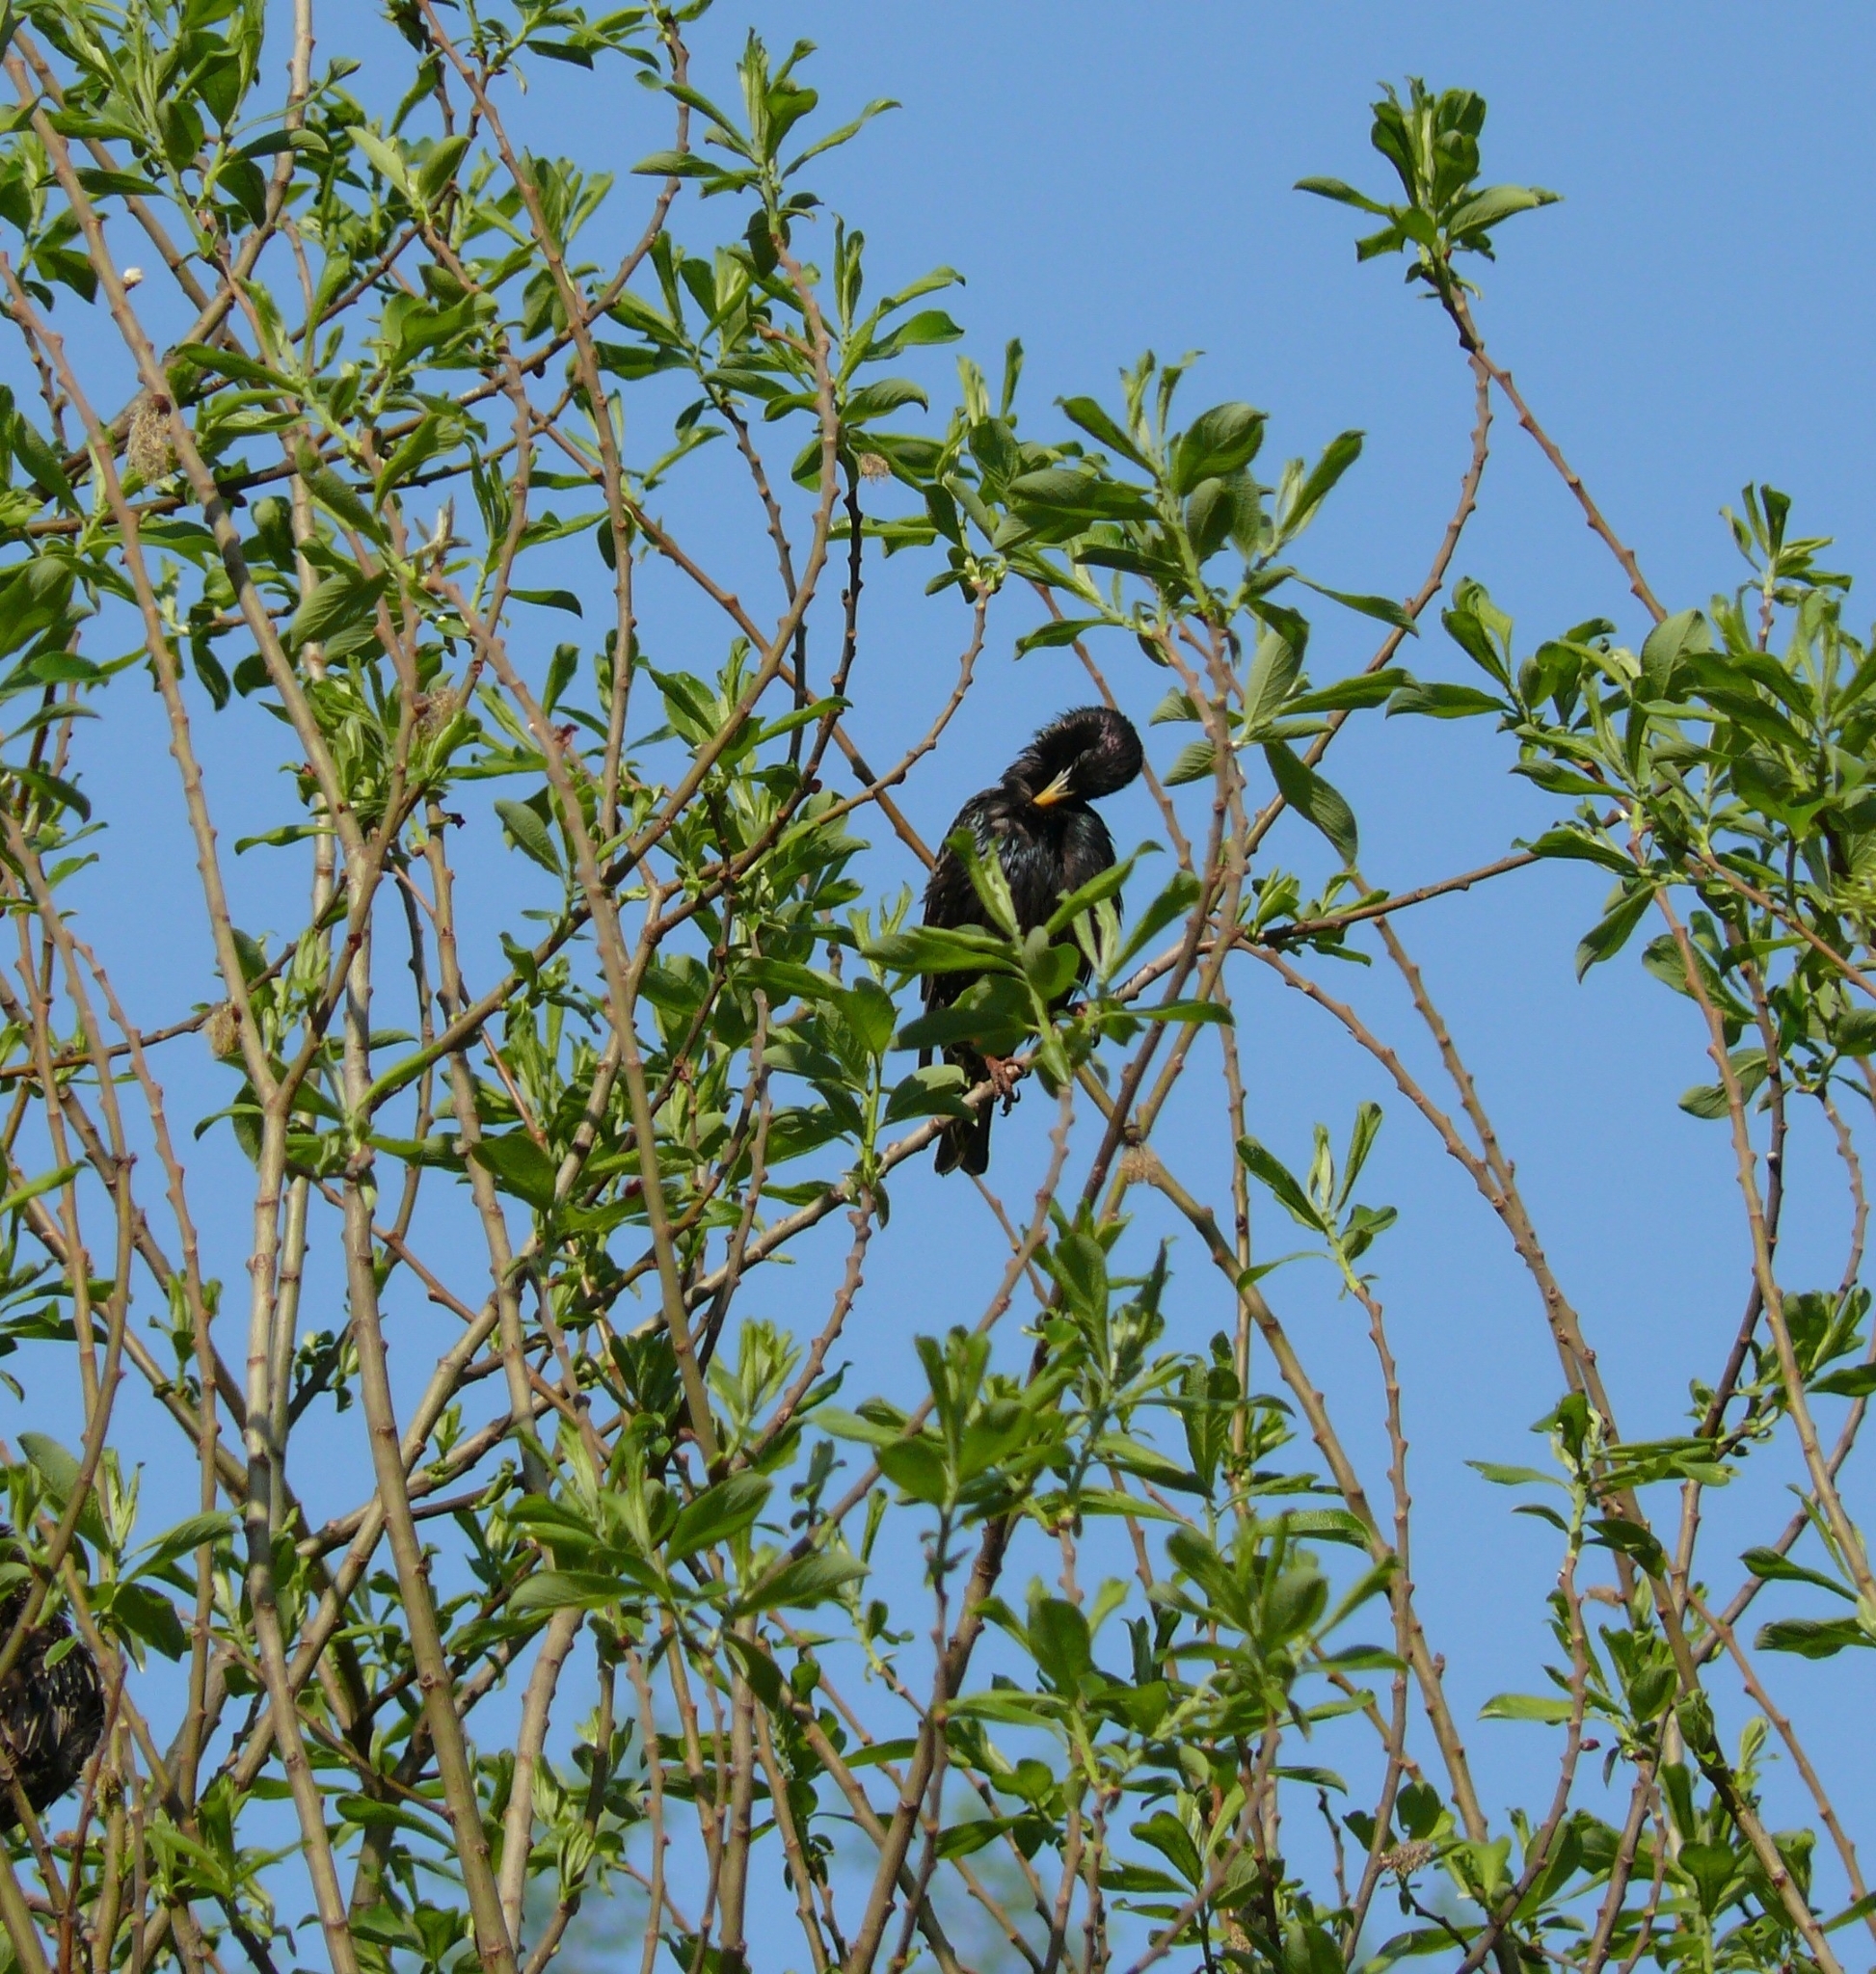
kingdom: Animalia
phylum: Chordata
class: Aves
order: Passeriformes
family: Sturnidae
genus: Sturnus
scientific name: Sturnus vulgaris
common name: Common starling
